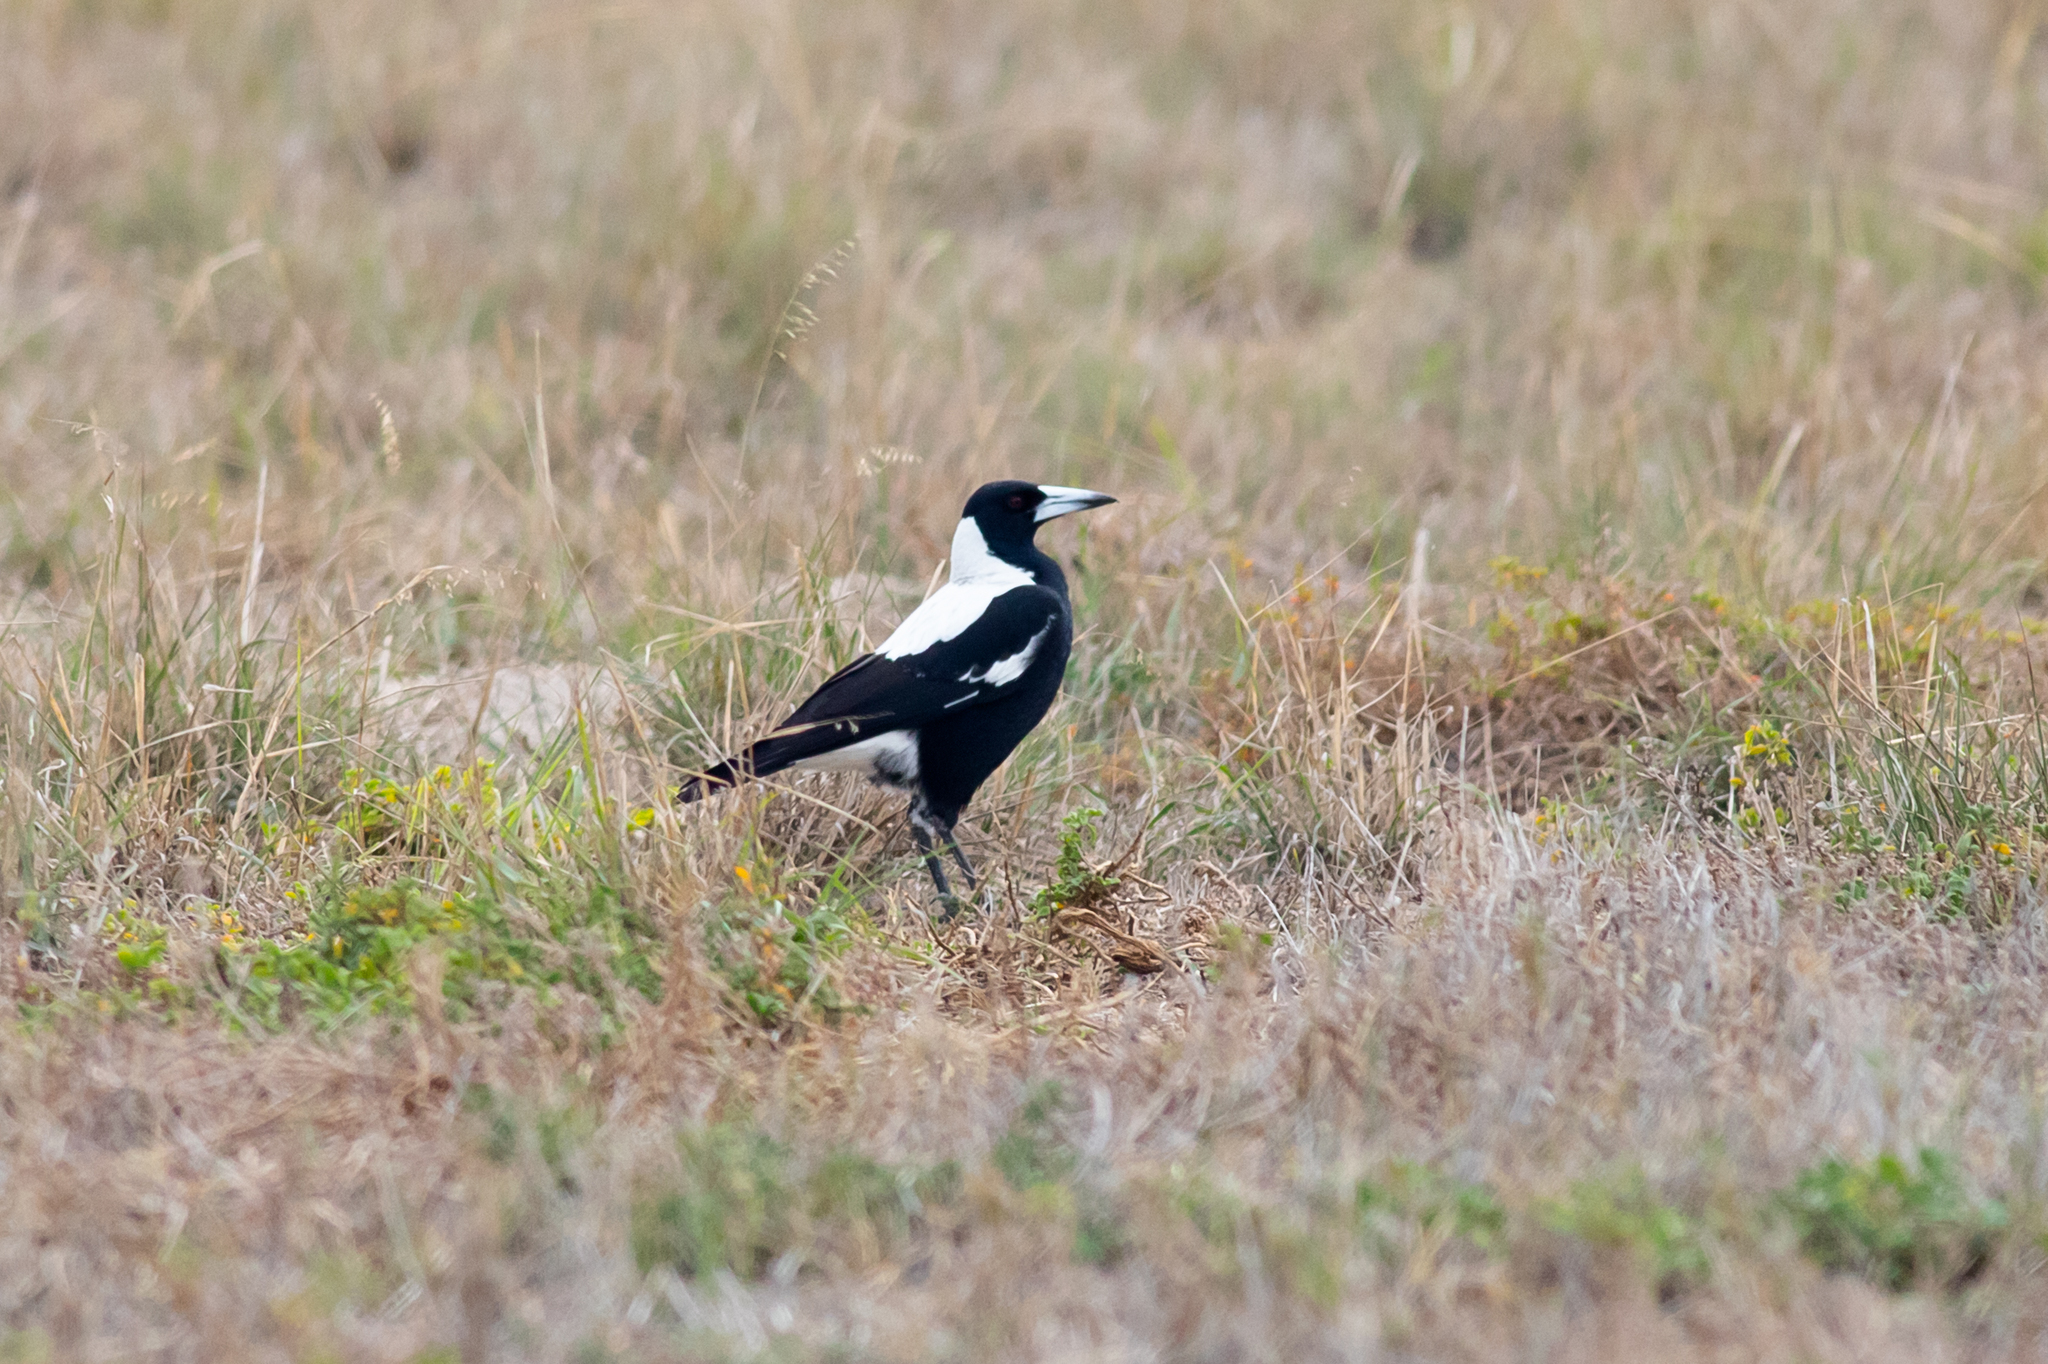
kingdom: Animalia
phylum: Chordata
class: Aves
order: Passeriformes
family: Cracticidae
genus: Gymnorhina
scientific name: Gymnorhina tibicen
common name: Australian magpie
